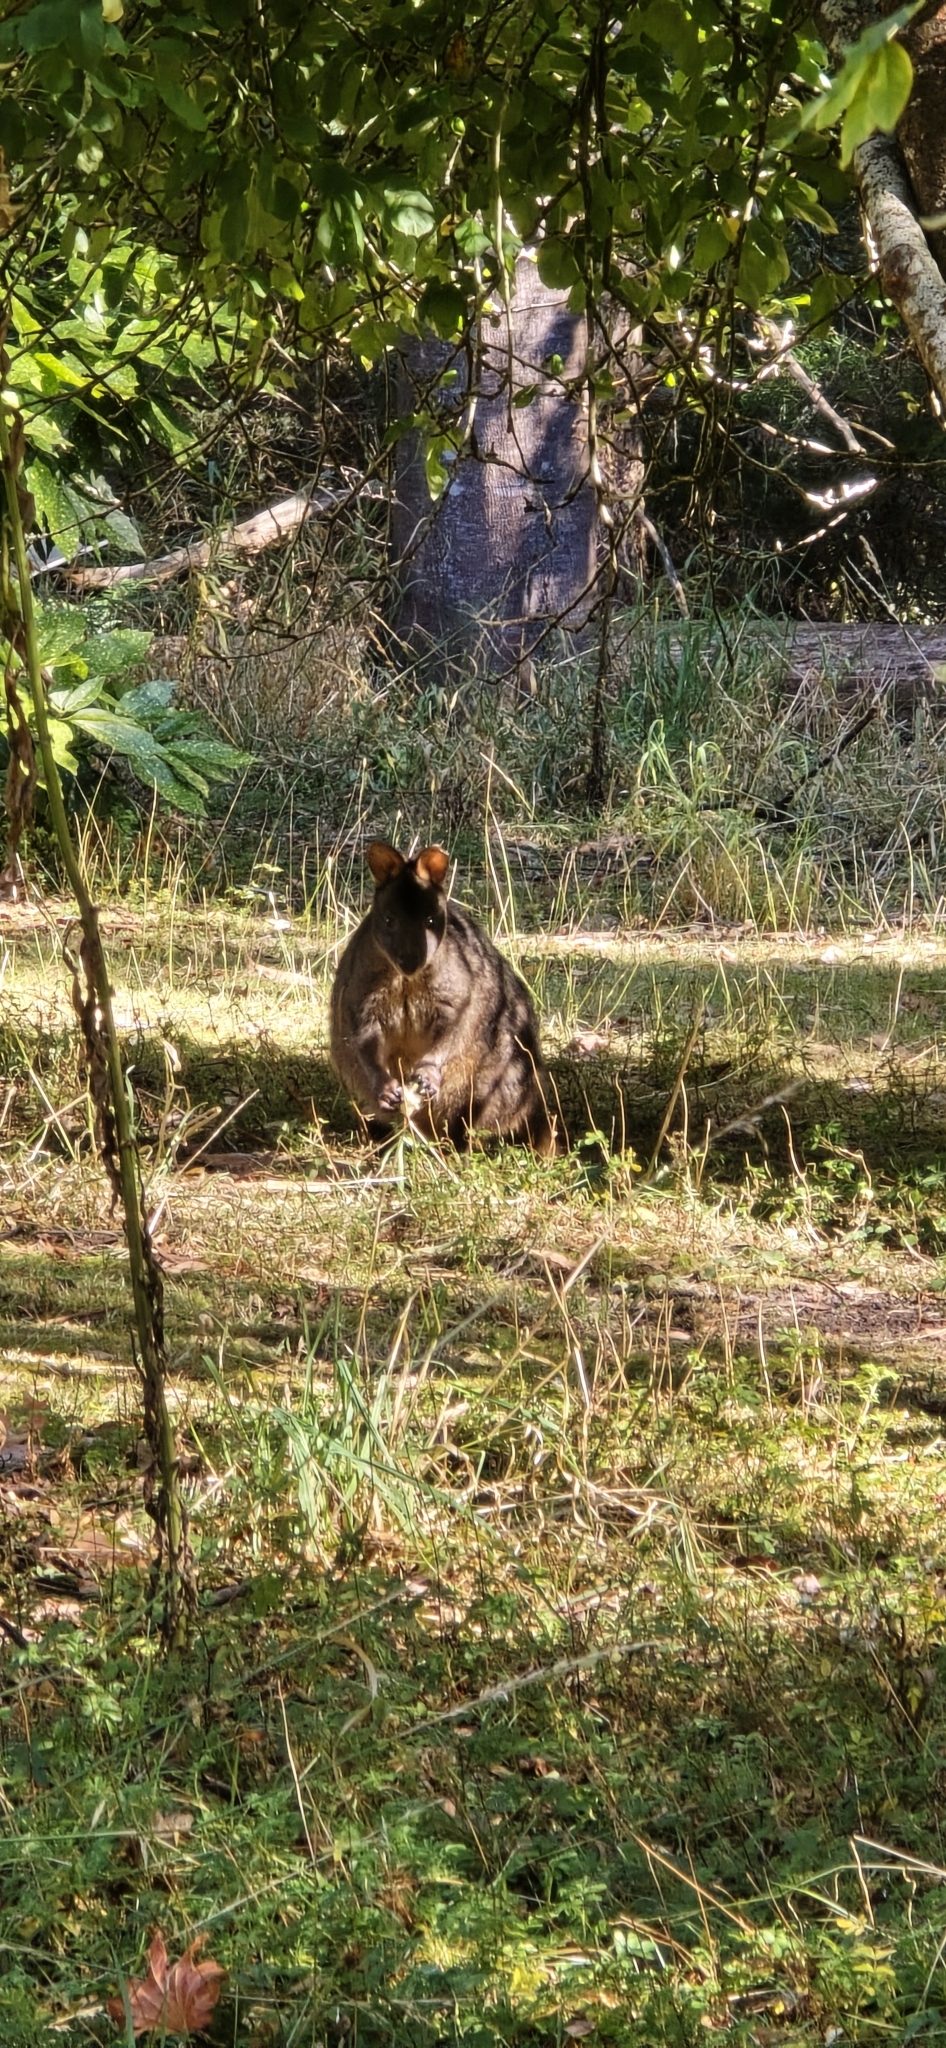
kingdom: Animalia
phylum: Chordata
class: Mammalia
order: Diprotodontia
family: Macropodidae
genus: Thylogale
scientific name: Thylogale billardierii
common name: Tasmanian pademelon
